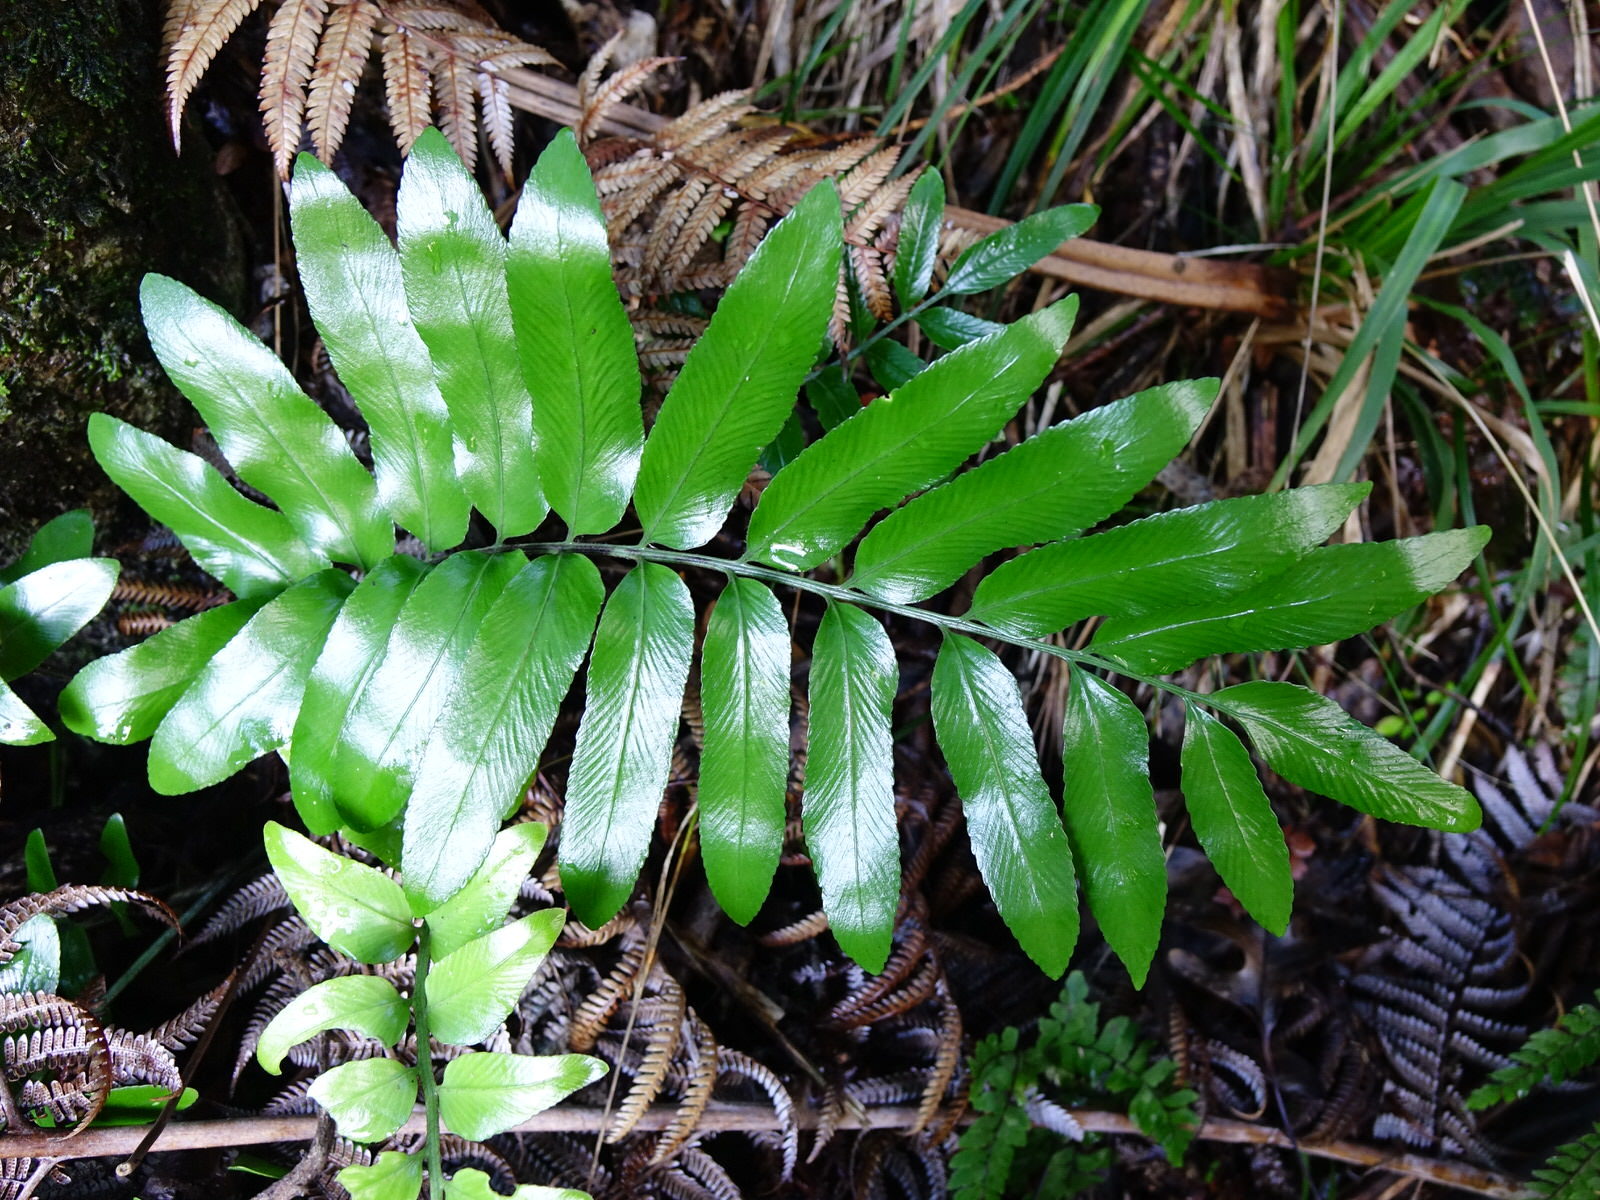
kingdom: Plantae
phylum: Tracheophyta
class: Polypodiopsida
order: Polypodiales
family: Aspleniaceae
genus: Asplenium
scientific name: Asplenium oblongifolium
